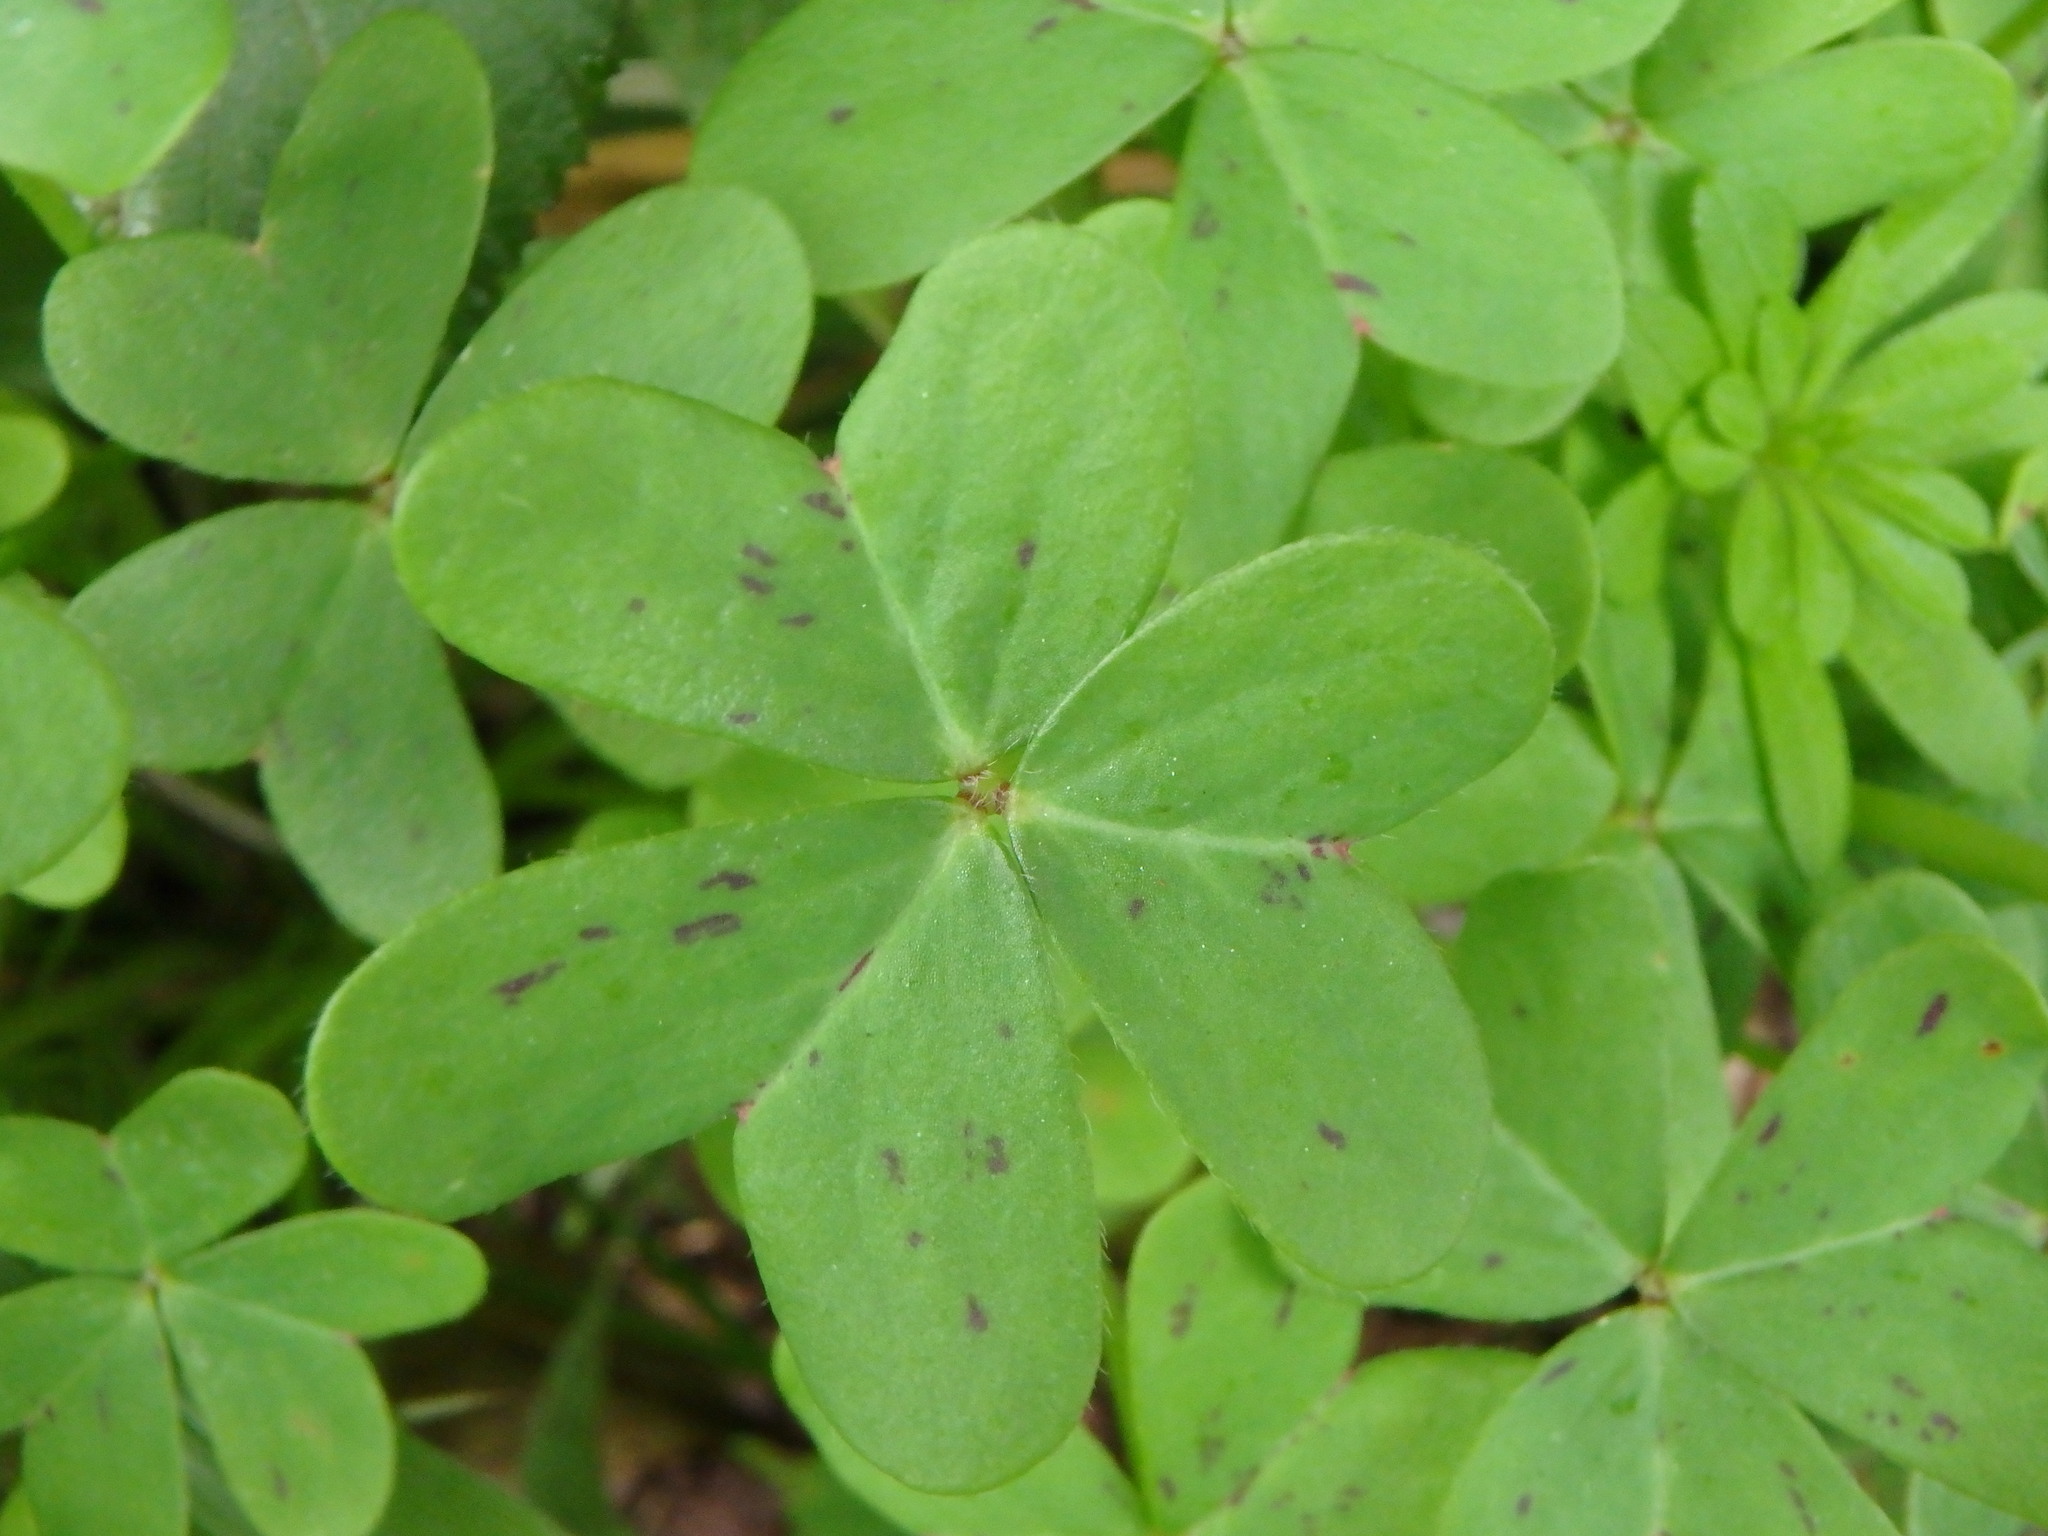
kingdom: Plantae
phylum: Tracheophyta
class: Magnoliopsida
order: Oxalidales
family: Oxalidaceae
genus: Oxalis
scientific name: Oxalis pes-caprae
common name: Bermuda-buttercup
